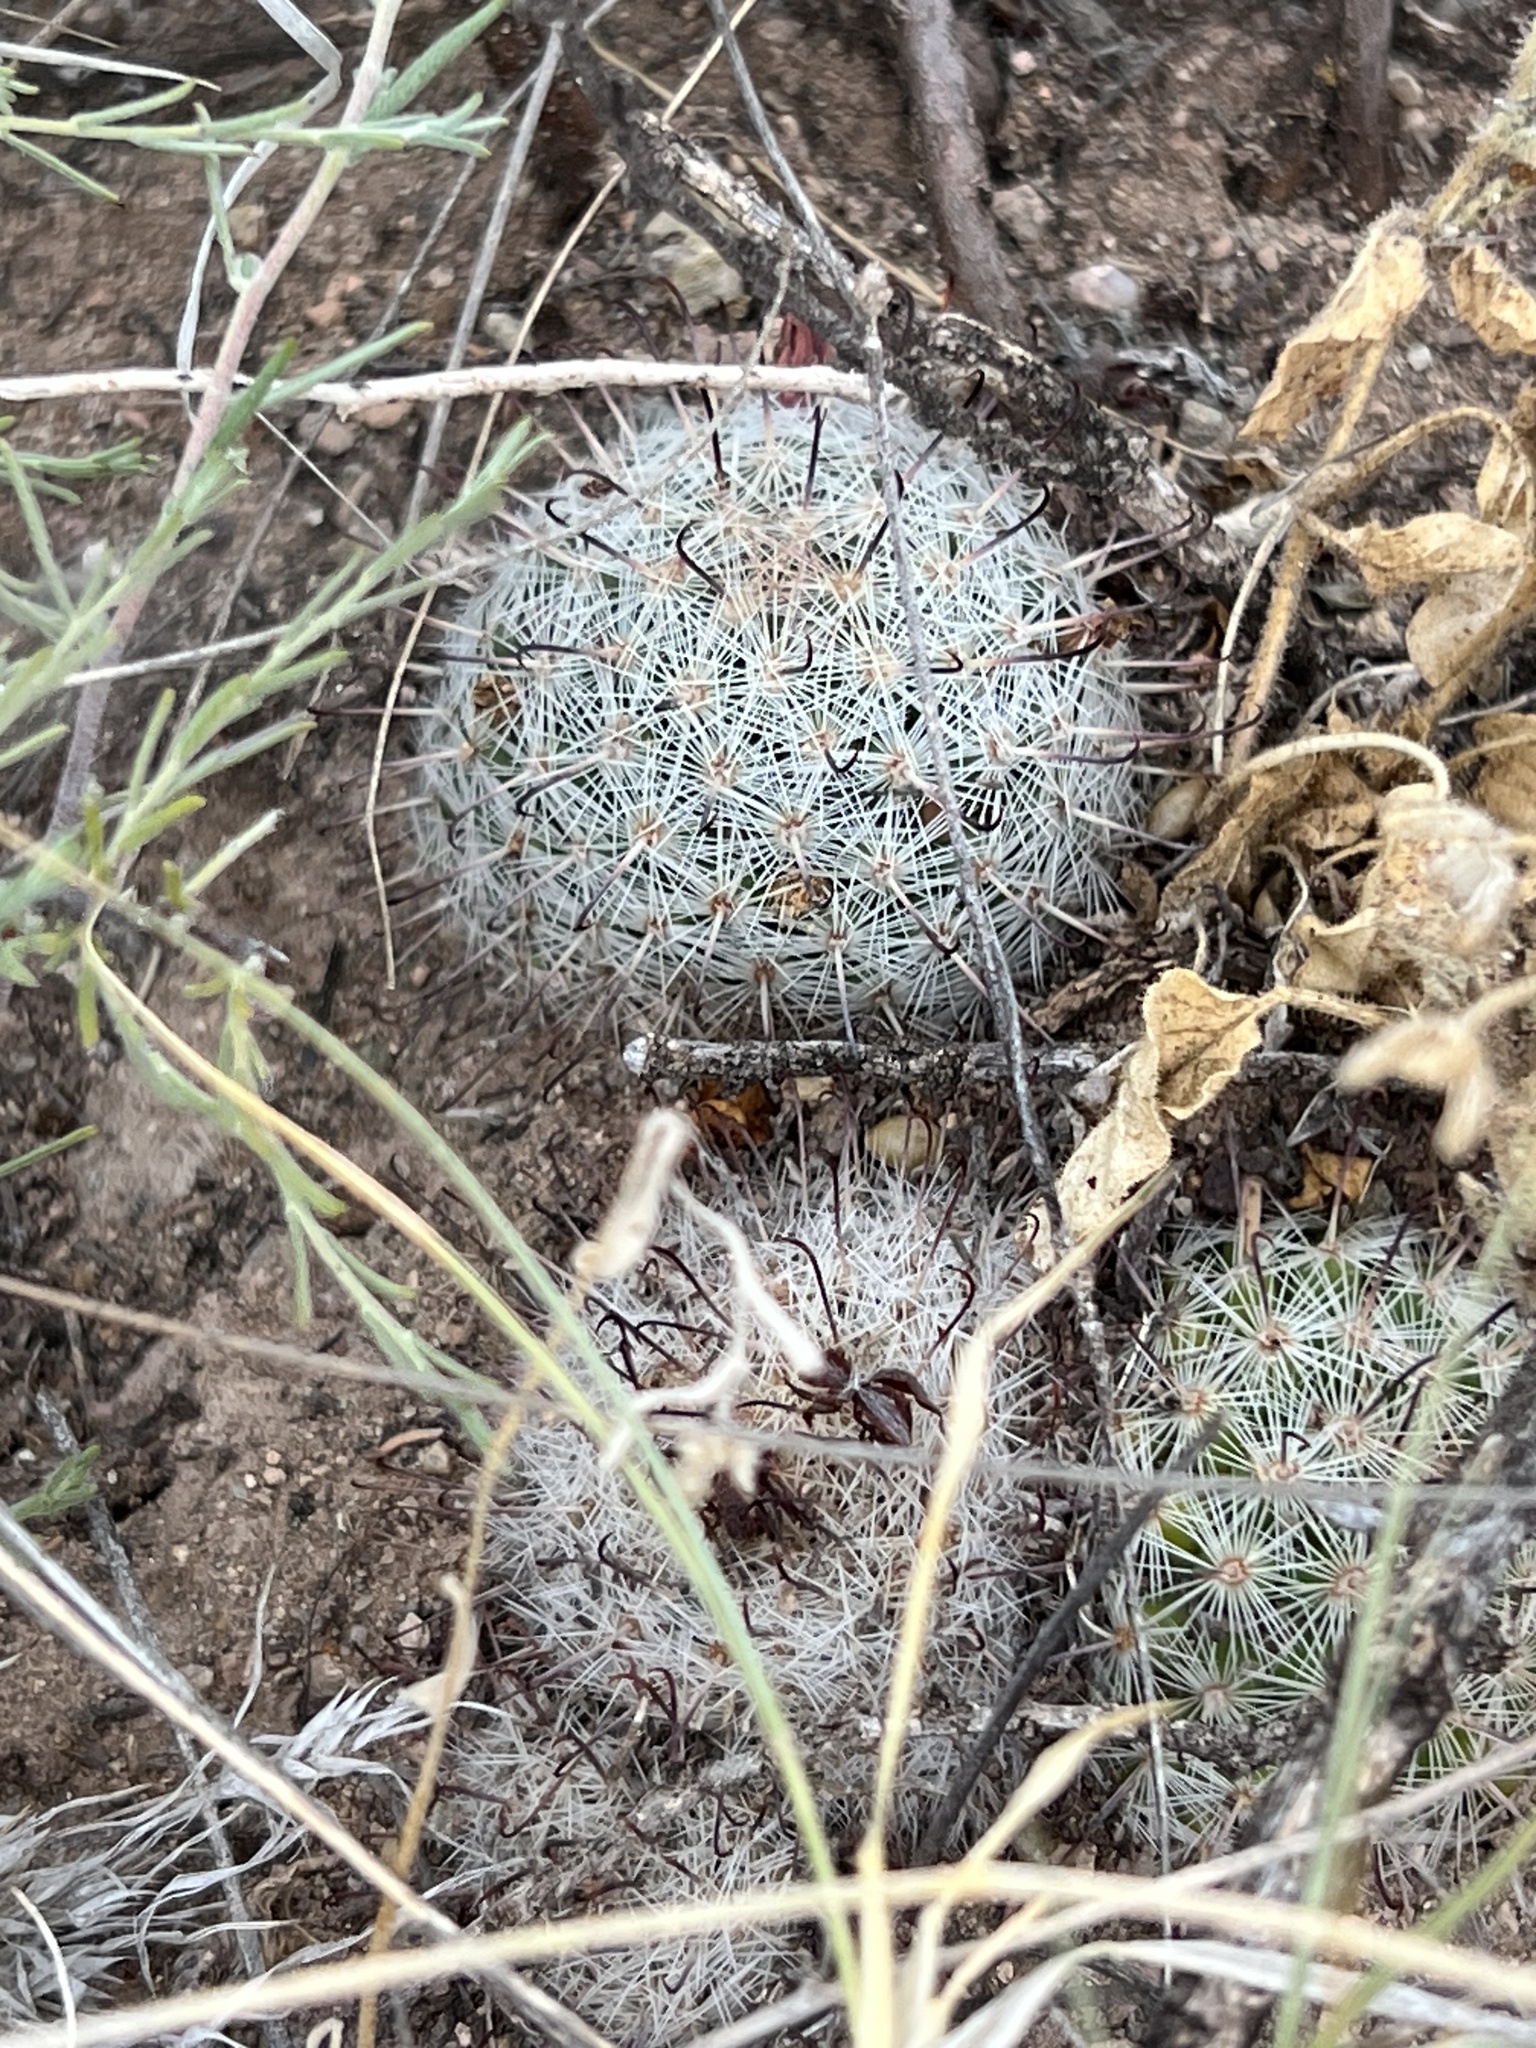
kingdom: Plantae
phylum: Tracheophyta
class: Magnoliopsida
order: Caryophyllales
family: Cactaceae
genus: Cochemiea
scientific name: Cochemiea grahamii
